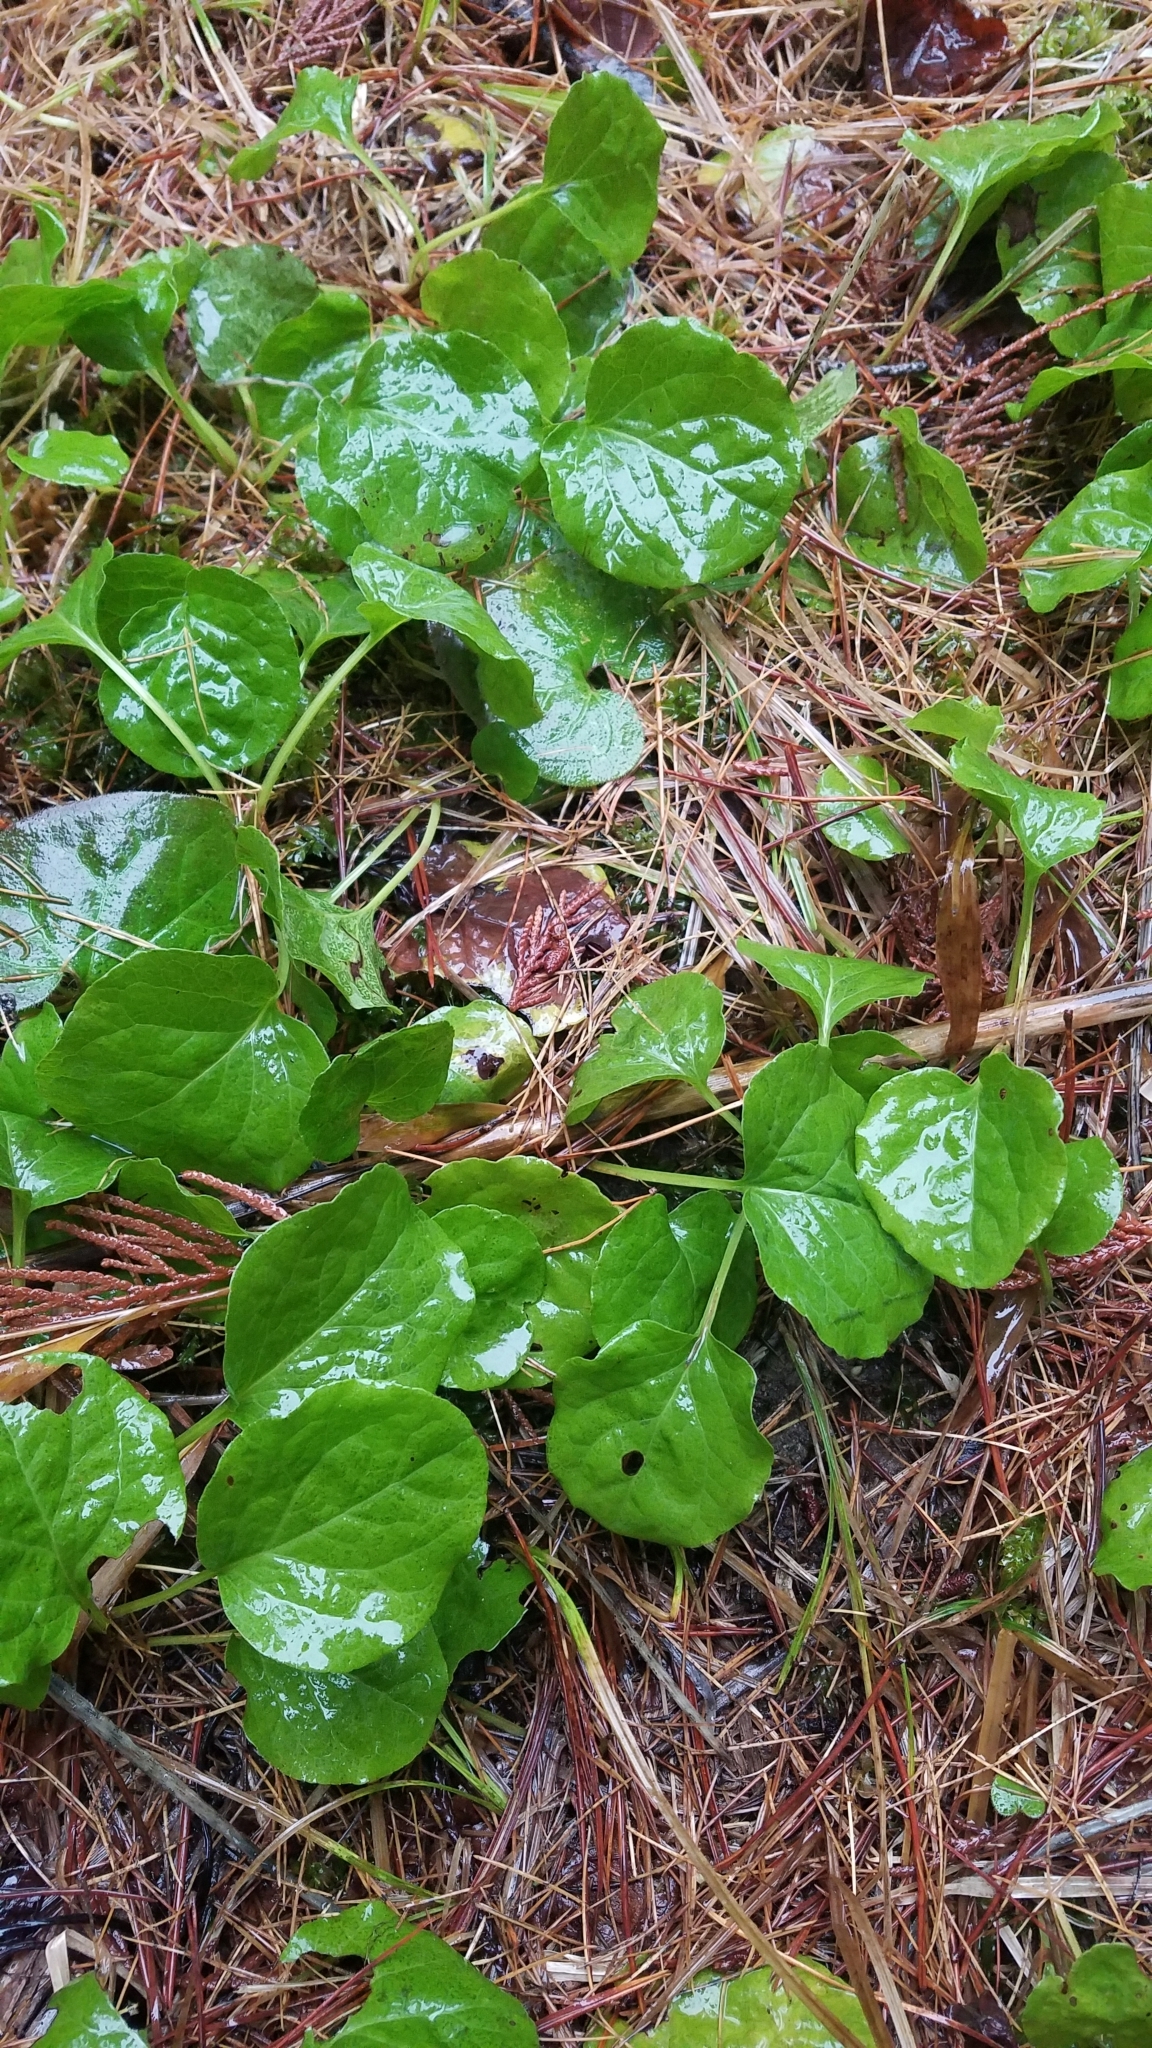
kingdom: Plantae
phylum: Tracheophyta
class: Magnoliopsida
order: Ericales
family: Ericaceae
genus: Pyrola
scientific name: Pyrola asarifolia
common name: Bog wintergreen
